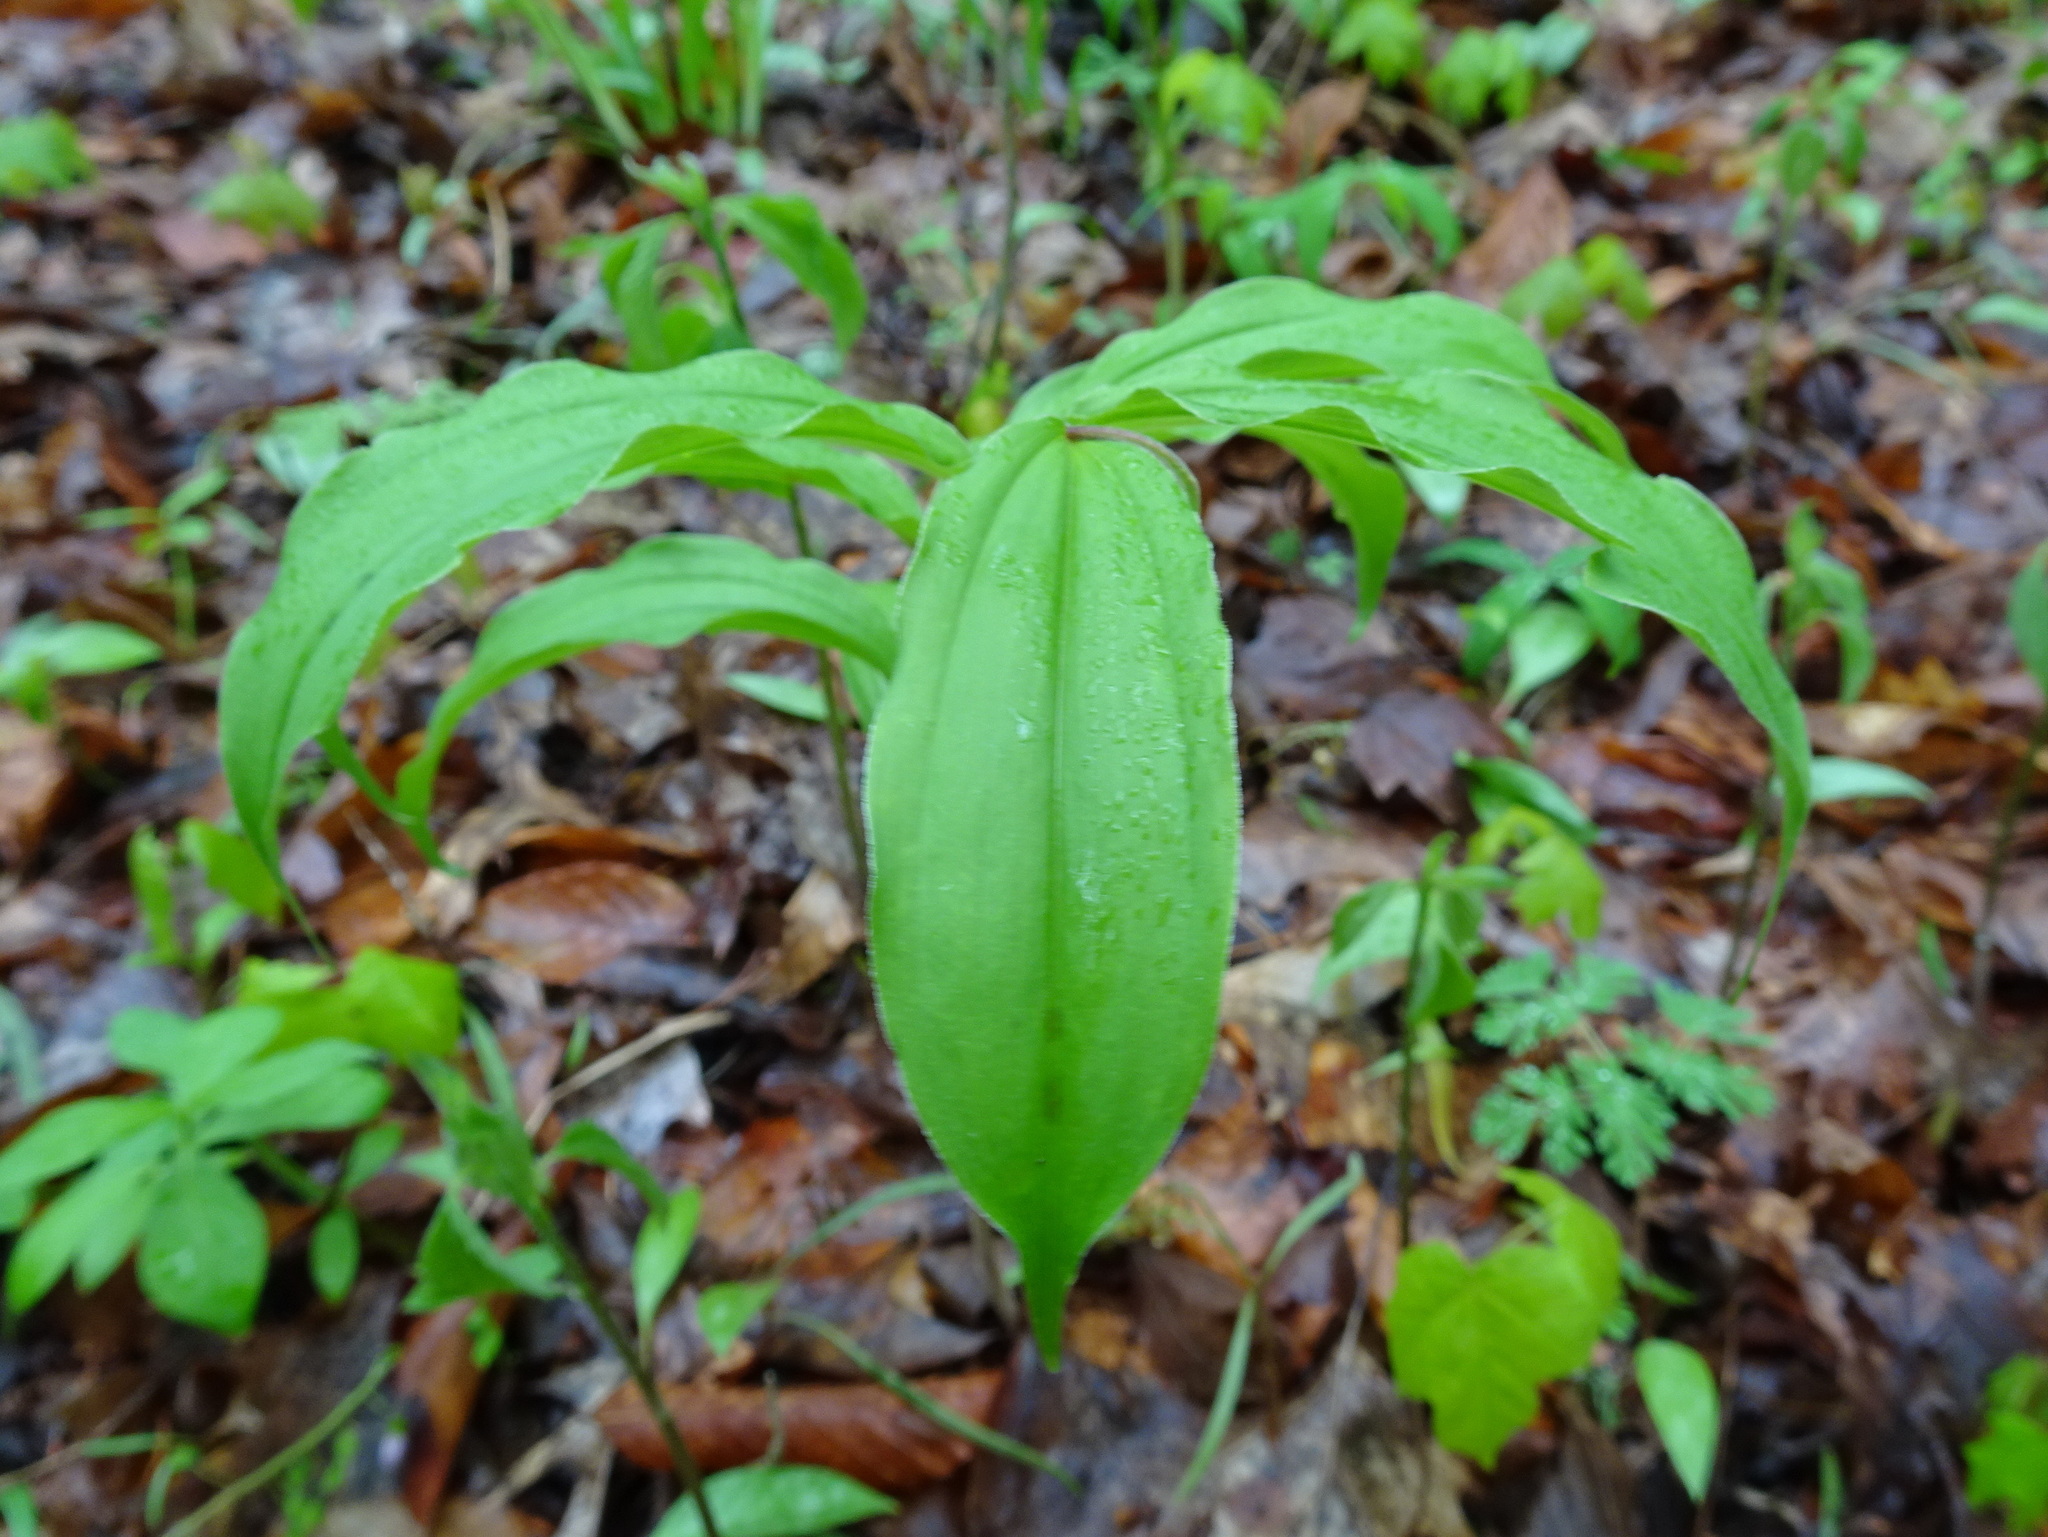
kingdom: Plantae
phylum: Tracheophyta
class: Liliopsida
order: Asparagales
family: Asparagaceae
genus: Maianthemum
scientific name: Maianthemum racemosum
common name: False spikenard
